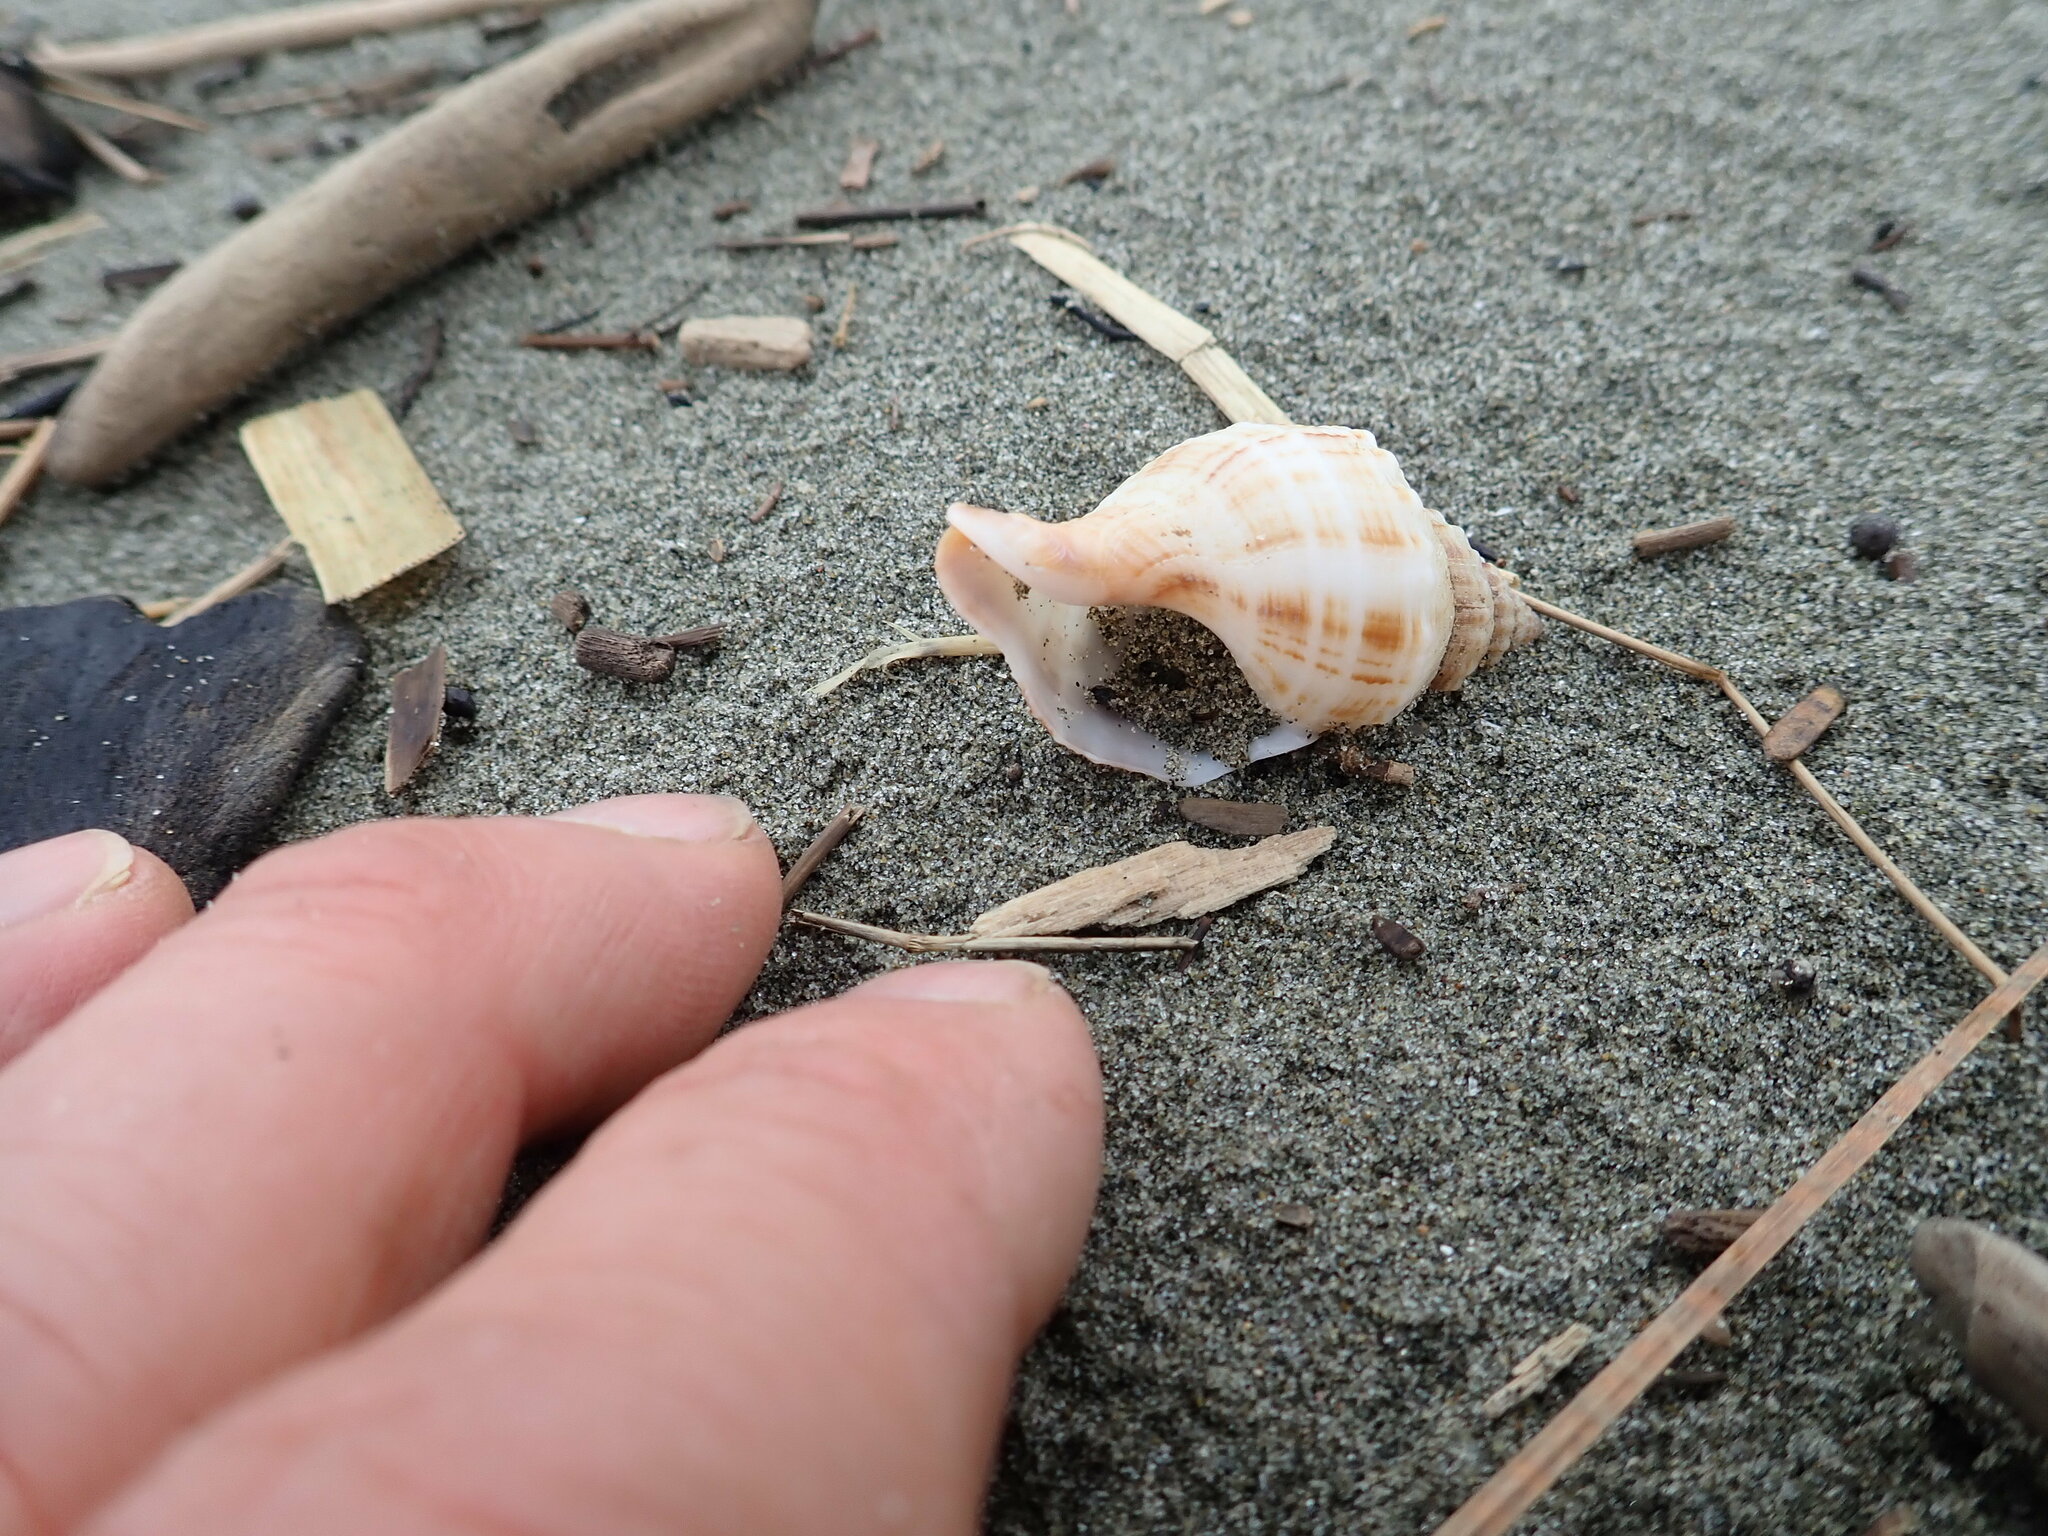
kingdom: Animalia
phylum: Mollusca
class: Gastropoda
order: Neogastropoda
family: Prosiphonidae
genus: Austrofusus
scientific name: Austrofusus glans
